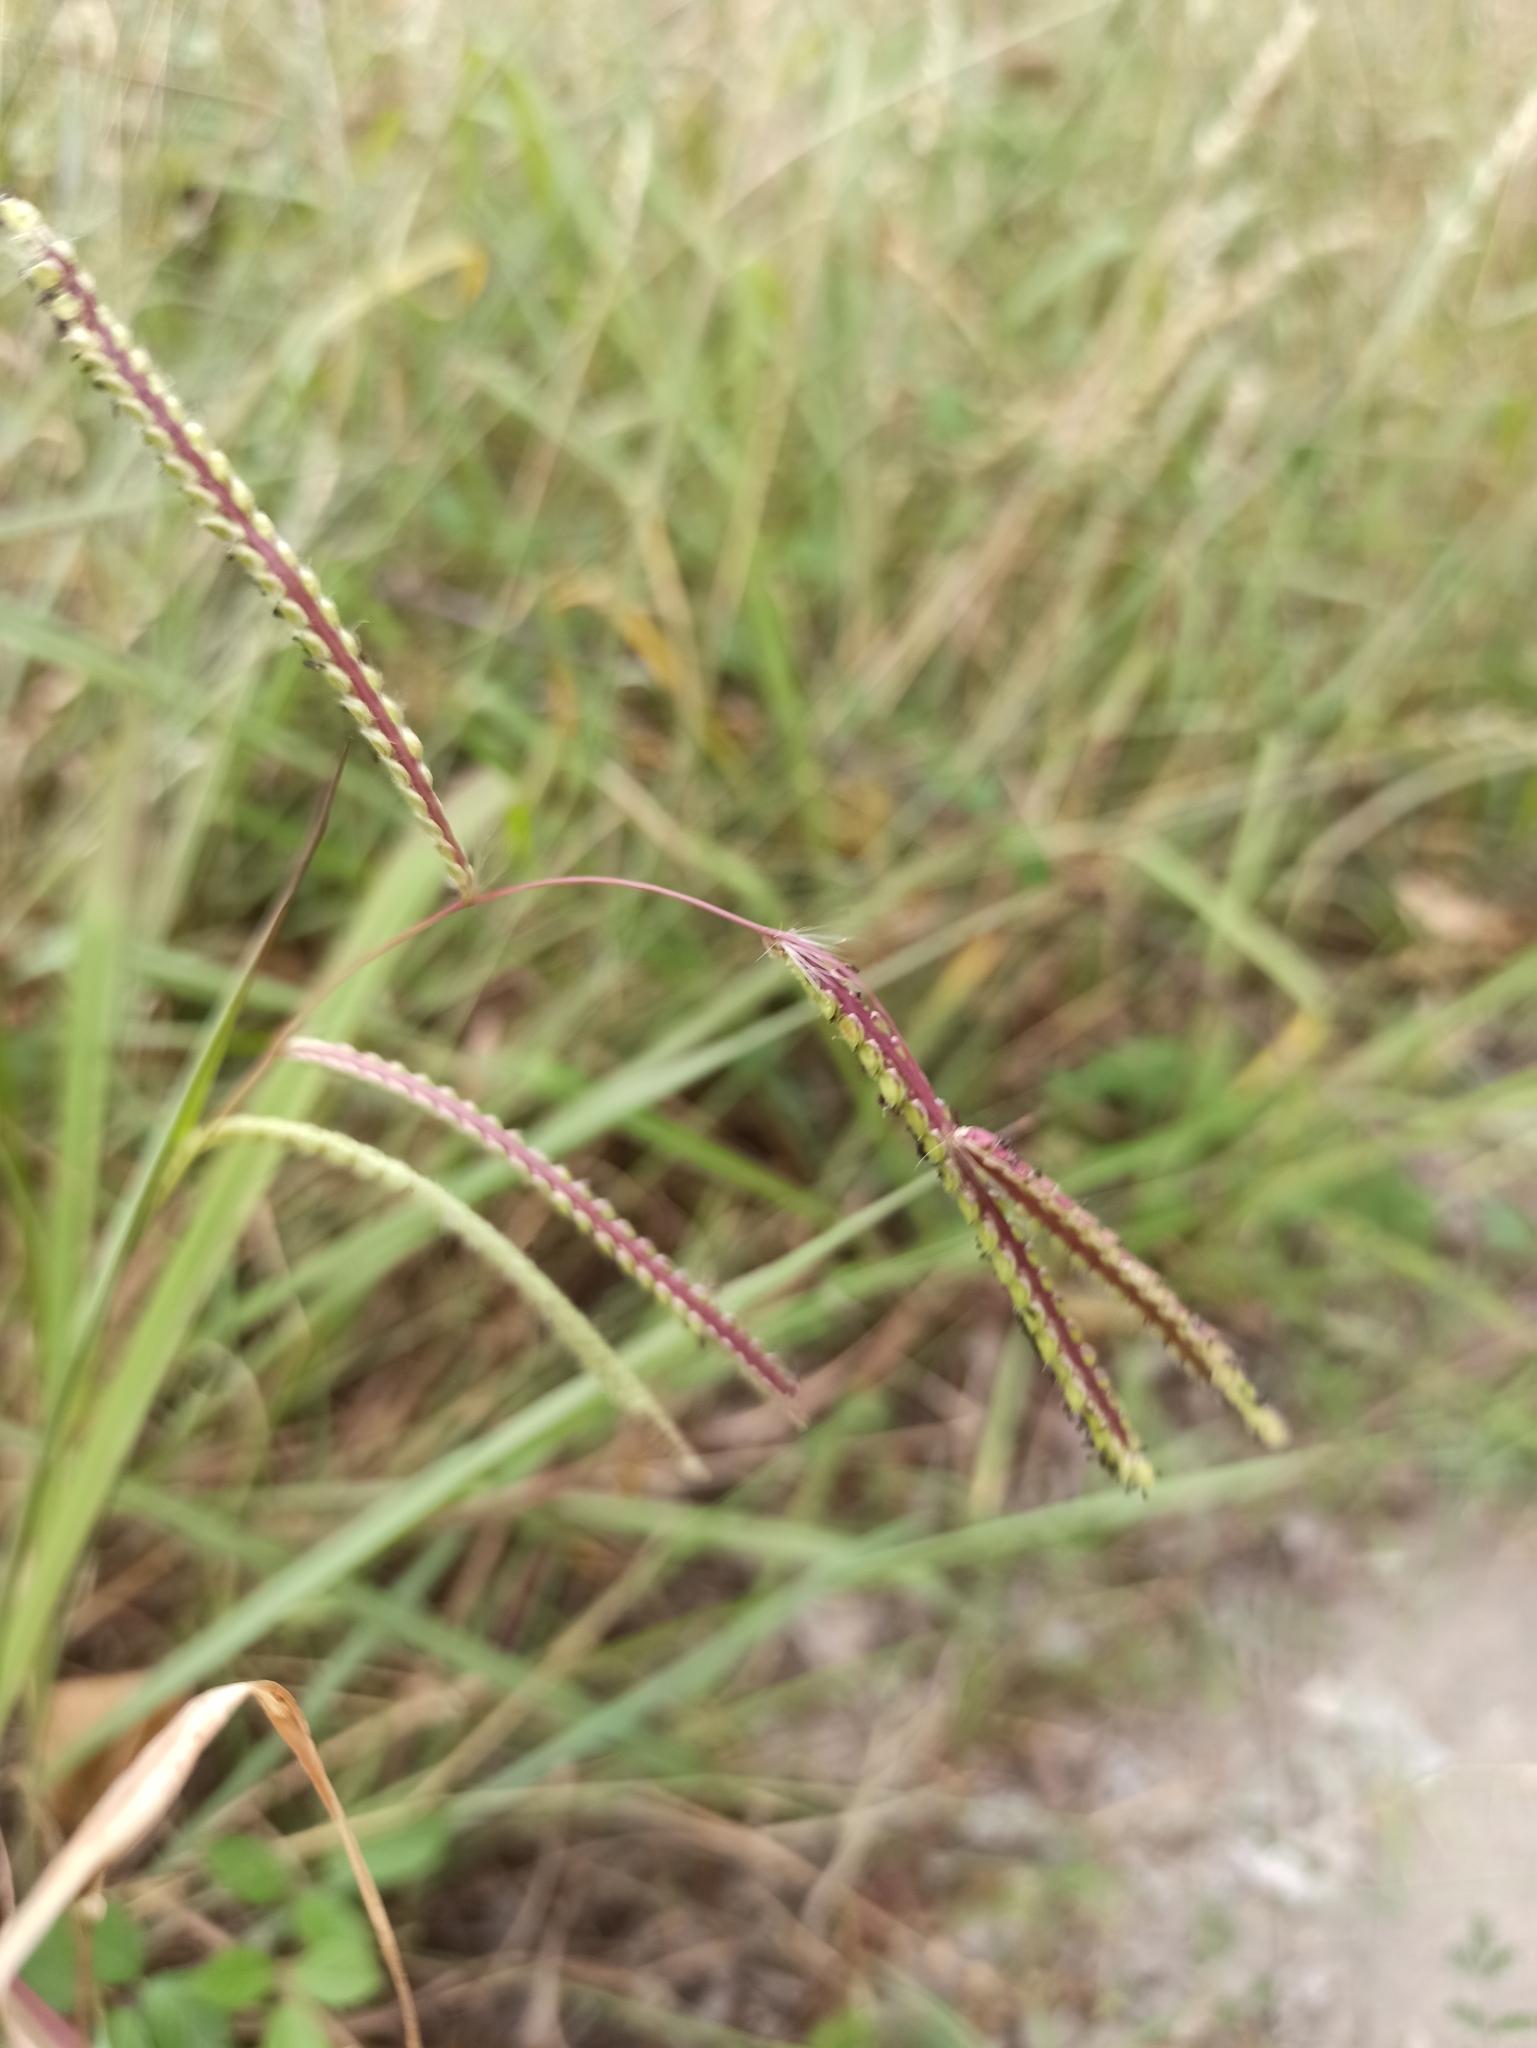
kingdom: Plantae
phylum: Tracheophyta
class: Liliopsida
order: Poales
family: Poaceae
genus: Paspalum
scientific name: Paspalum dilatatum
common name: Dallisgrass
